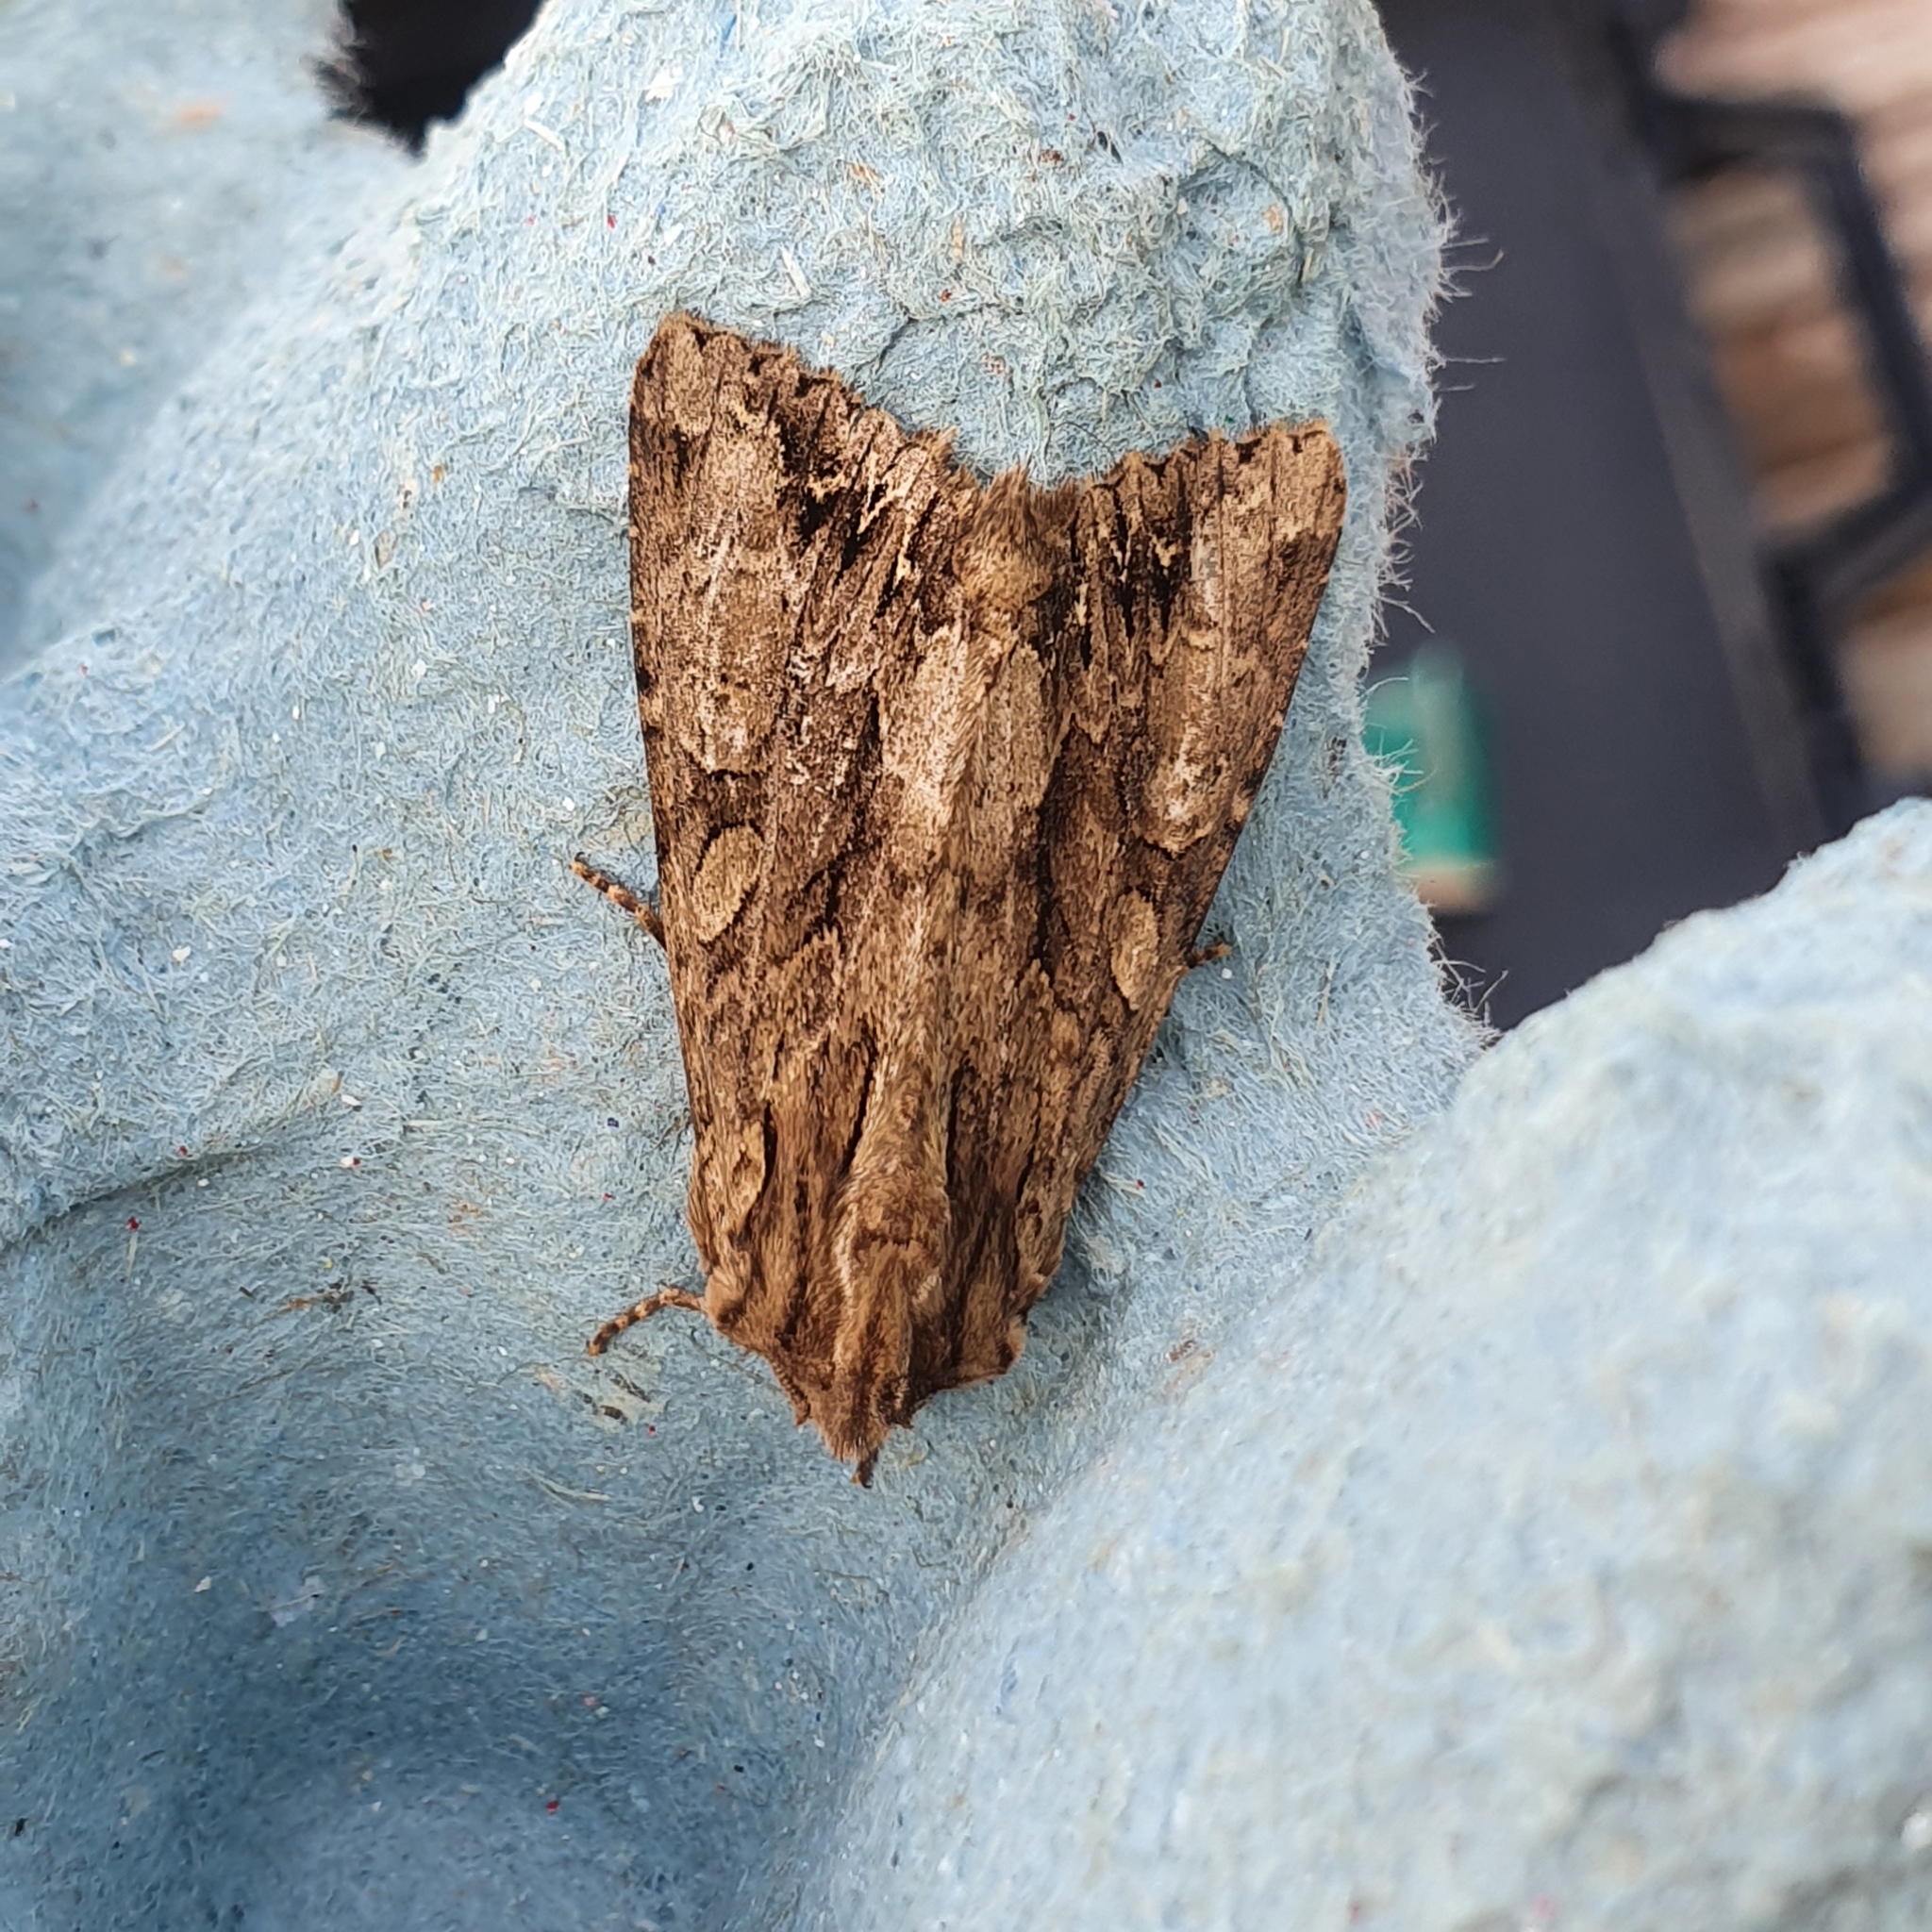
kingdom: Animalia
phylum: Arthropoda
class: Insecta
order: Lepidoptera
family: Noctuidae
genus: Apamea
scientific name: Apamea monoglypha
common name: Dark arches
